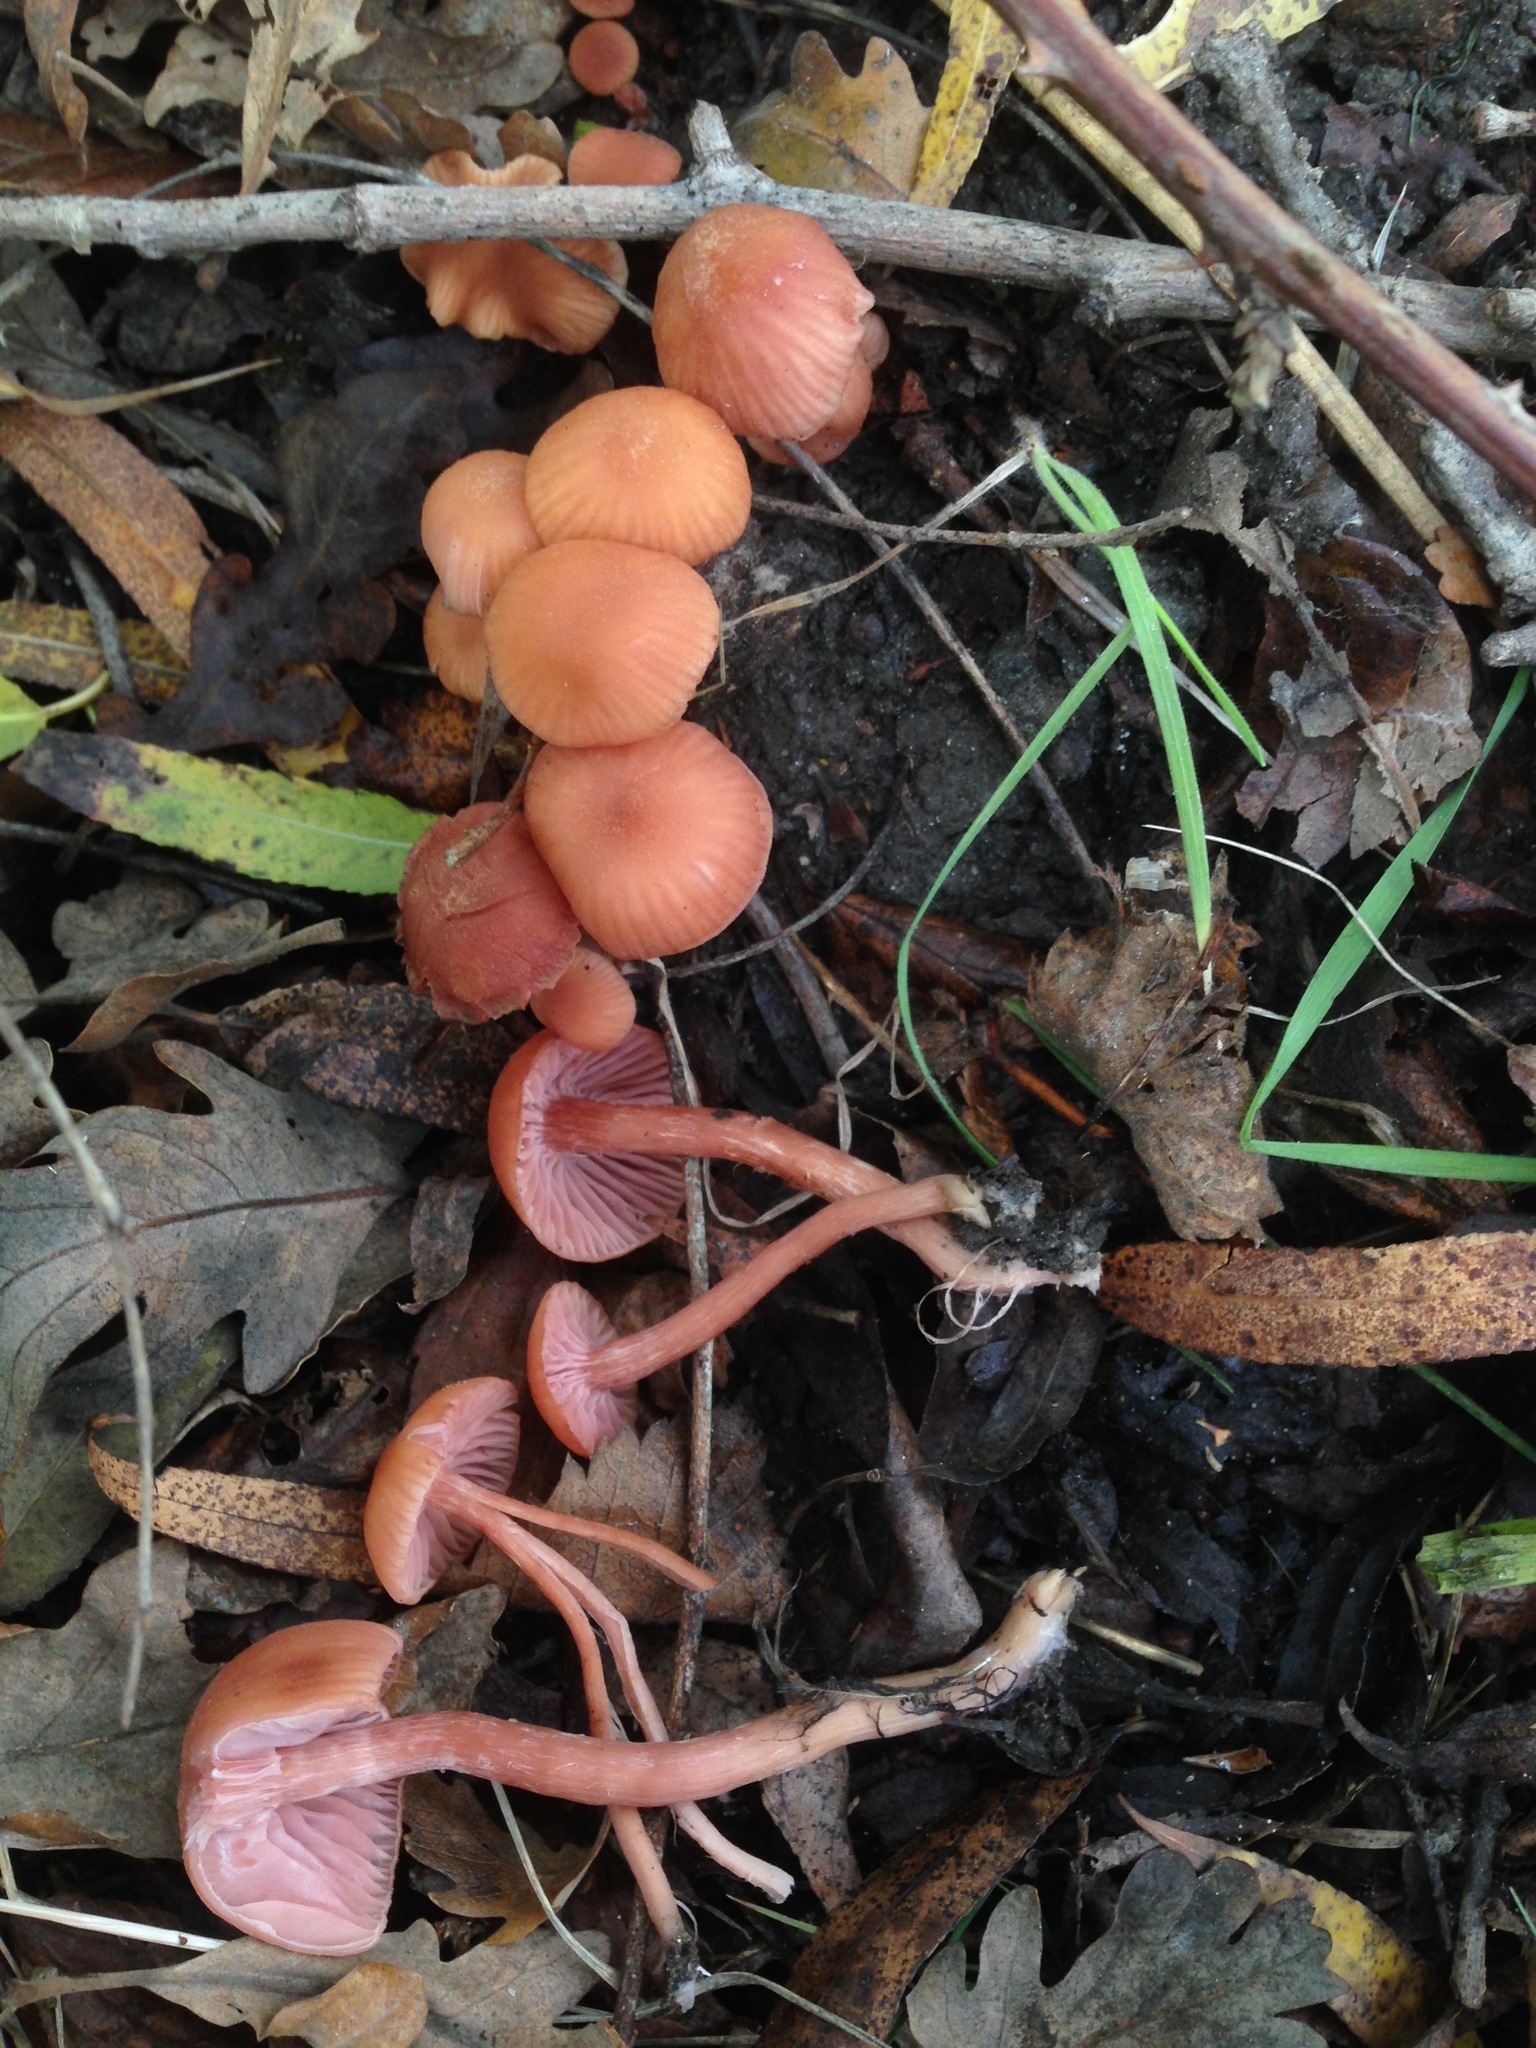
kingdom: Fungi
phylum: Basidiomycota
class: Agaricomycetes
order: Agaricales
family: Hydnangiaceae
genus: Laccaria
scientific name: Laccaria laccata
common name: Deceiver
